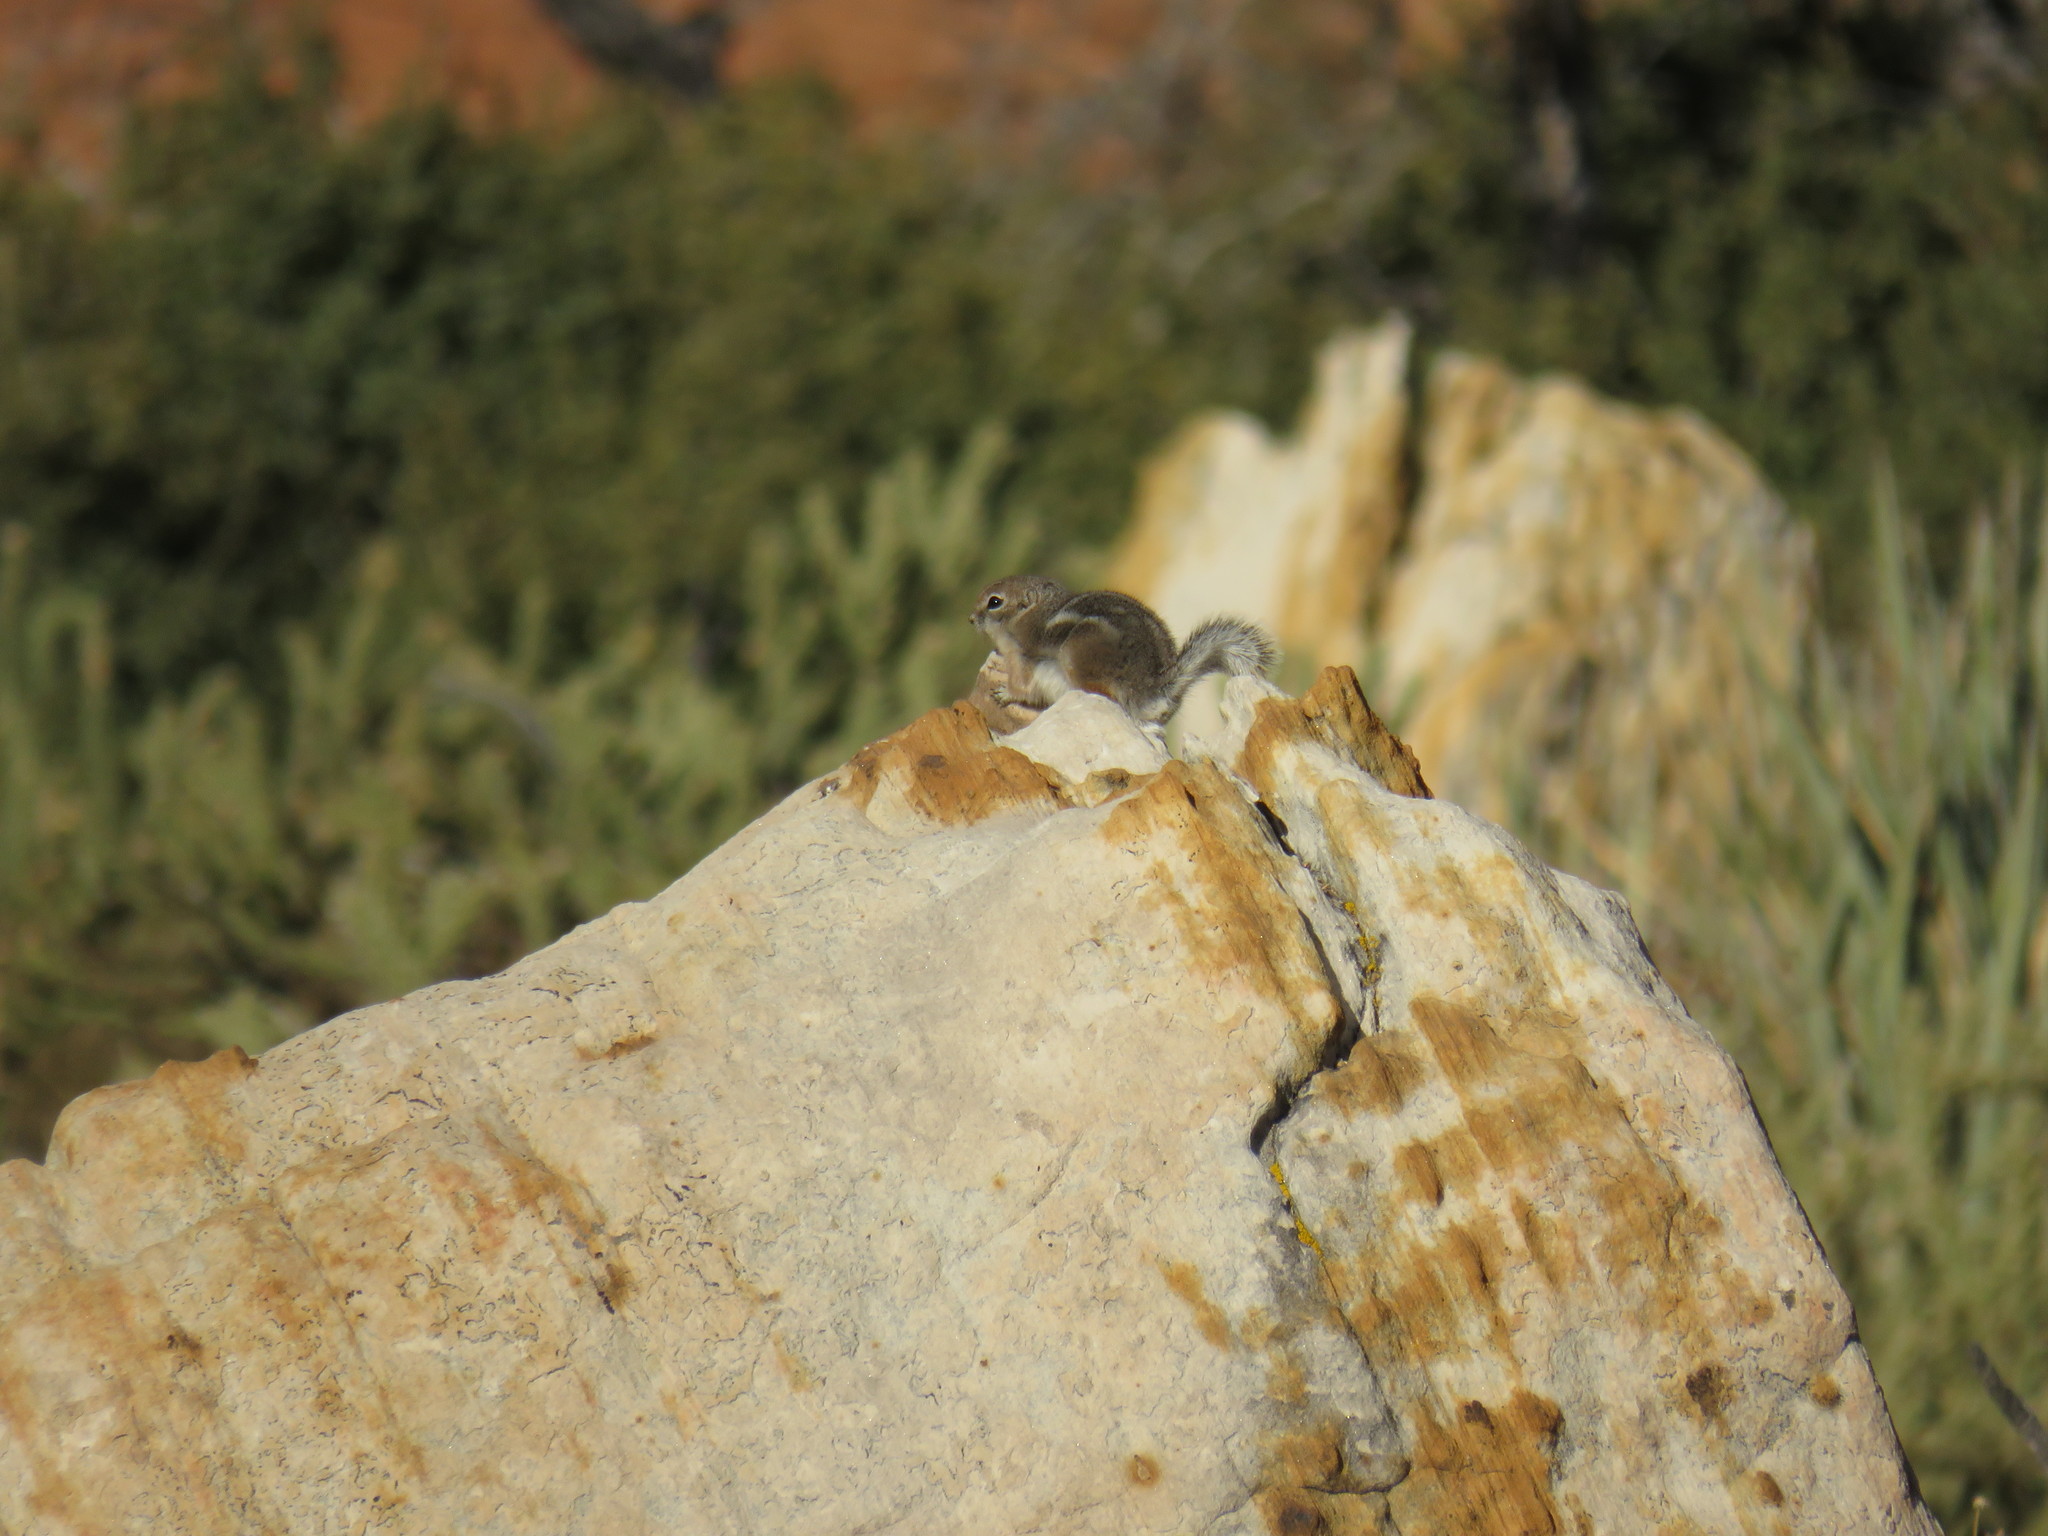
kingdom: Animalia
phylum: Chordata
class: Mammalia
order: Rodentia
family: Sciuridae
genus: Ammospermophilus
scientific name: Ammospermophilus leucurus
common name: White-tailed antelope squirrel
